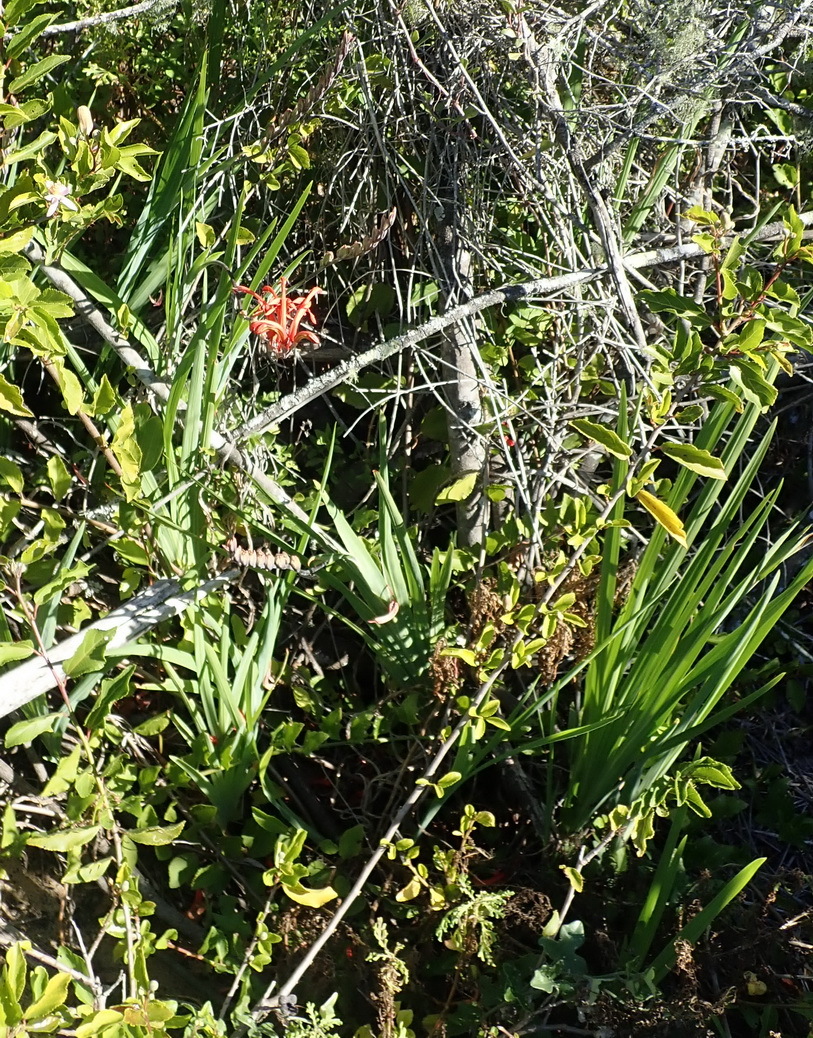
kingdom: Plantae
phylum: Tracheophyta
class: Liliopsida
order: Asparagales
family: Iridaceae
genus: Chasmanthe
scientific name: Chasmanthe aethiopica
